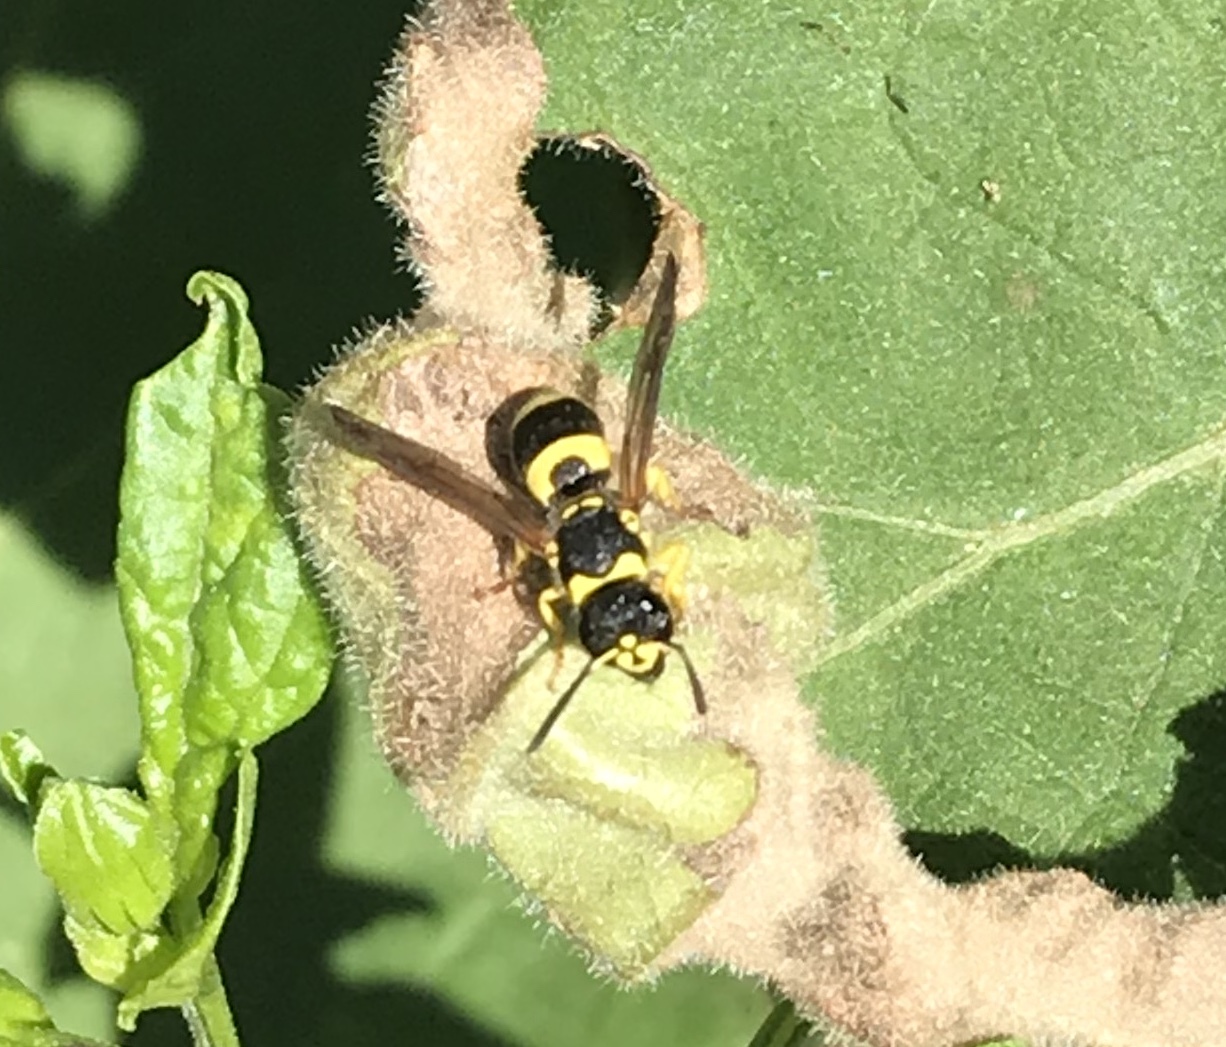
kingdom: Animalia
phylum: Arthropoda
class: Insecta
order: Hymenoptera
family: Vespidae
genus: Ancistrocerus
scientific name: Ancistrocerus gazella
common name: European tube wasp
